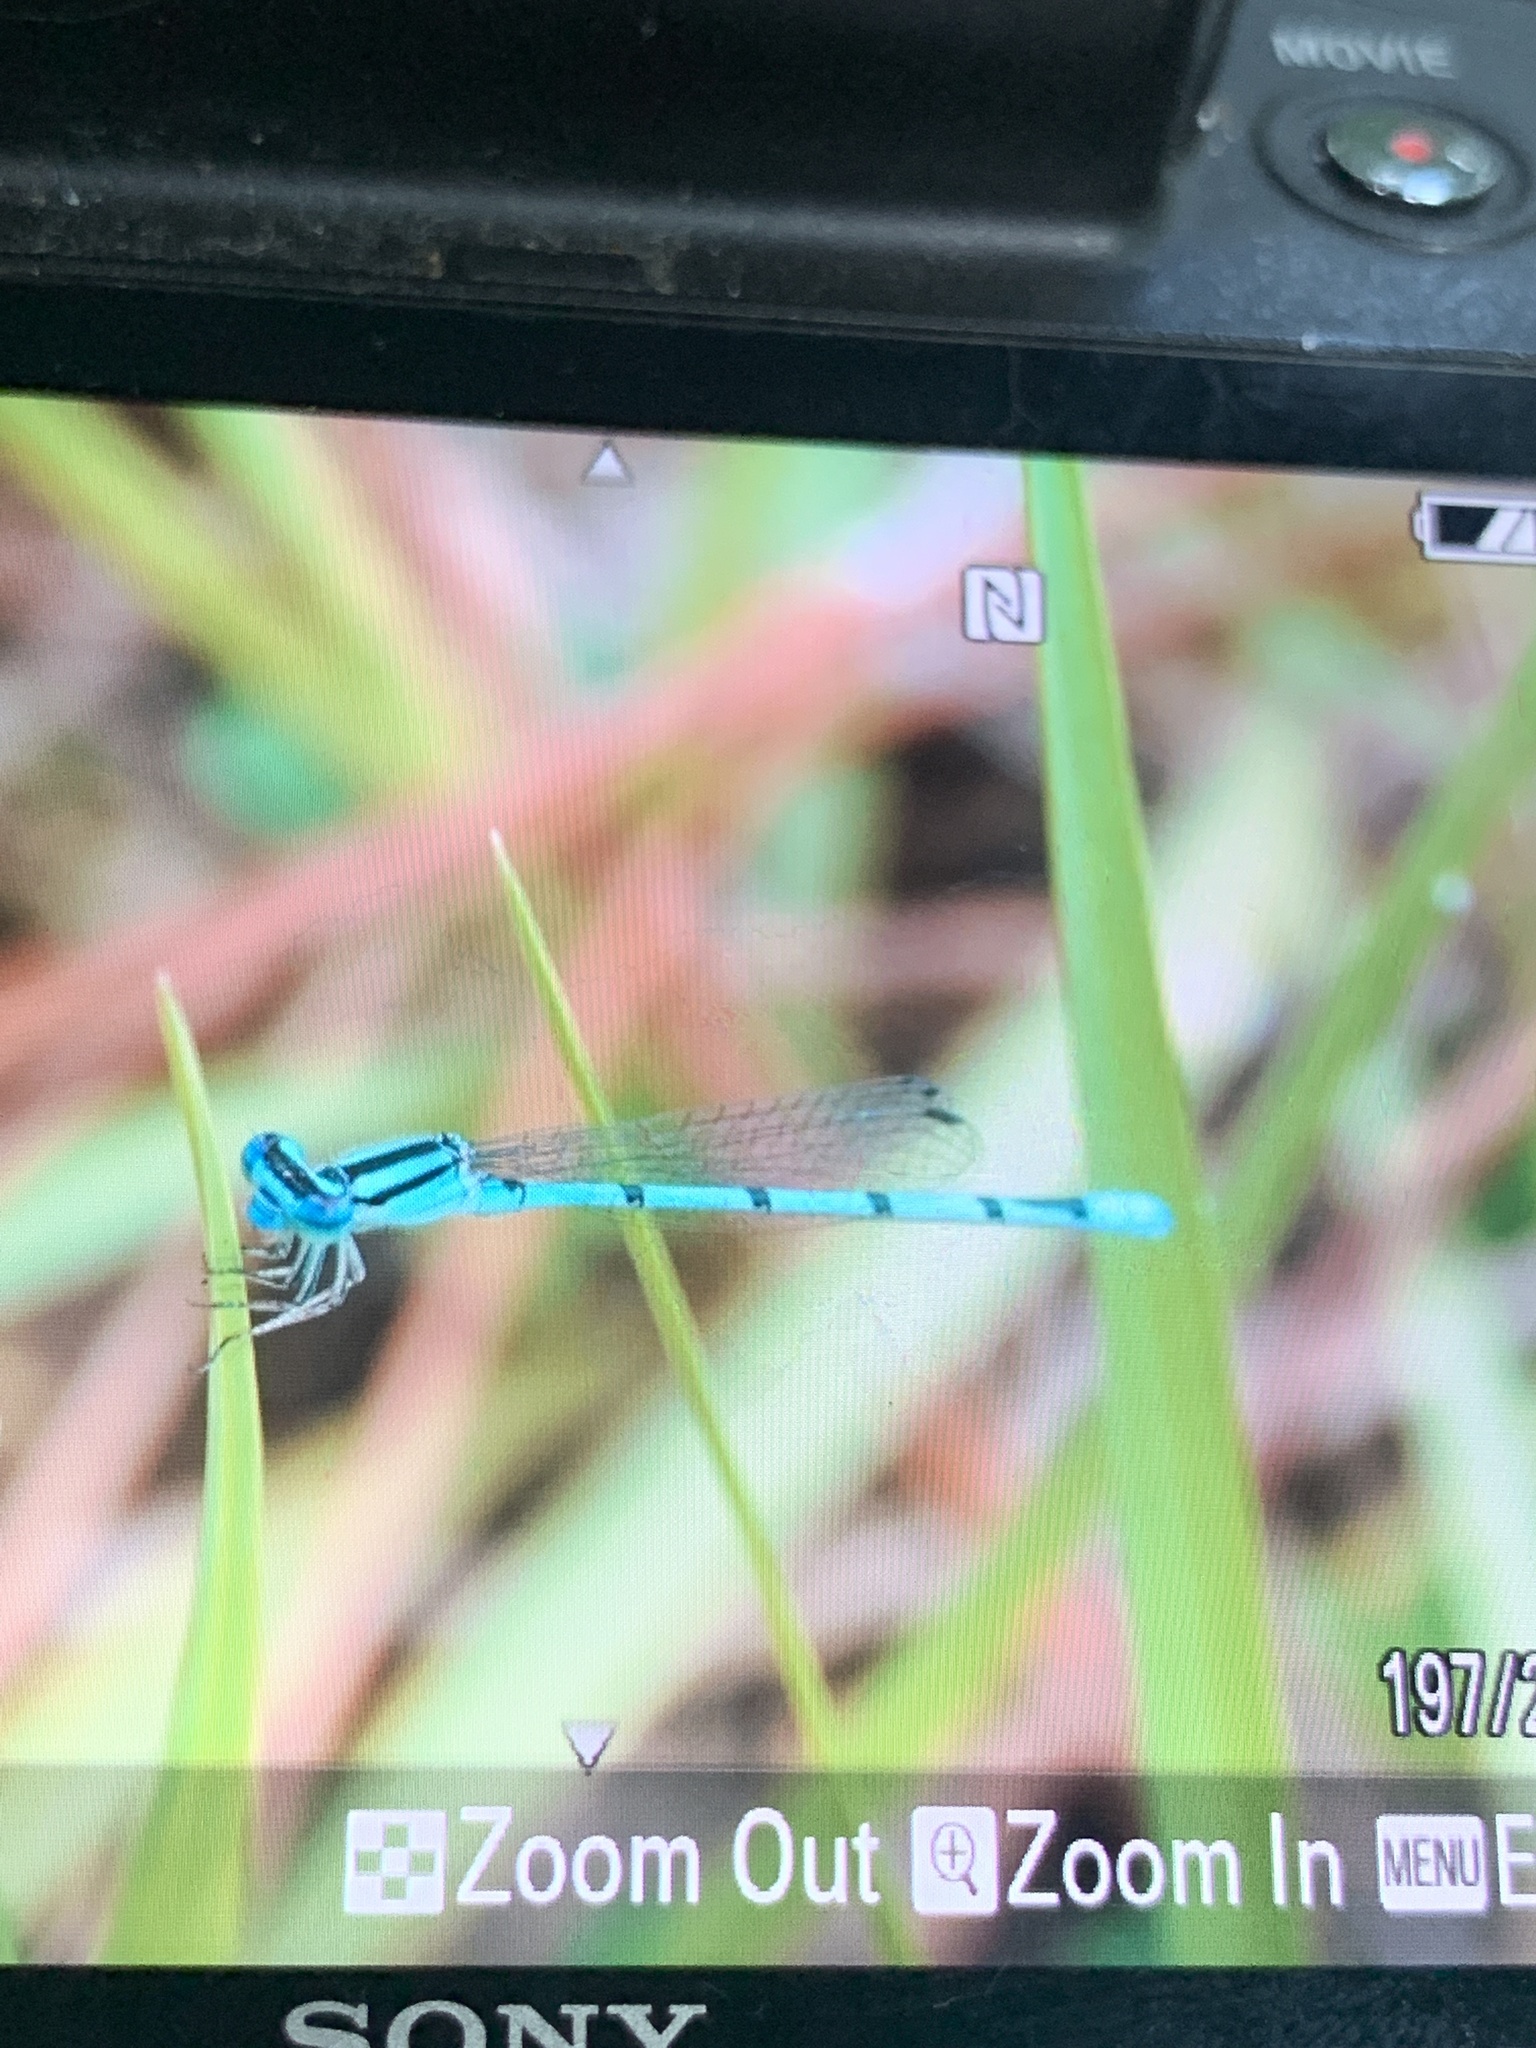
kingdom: Animalia
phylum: Arthropoda
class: Insecta
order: Odonata
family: Coenagrionidae
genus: Enallagma
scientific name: Enallagma doubledayi
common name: Atlantic bluet
